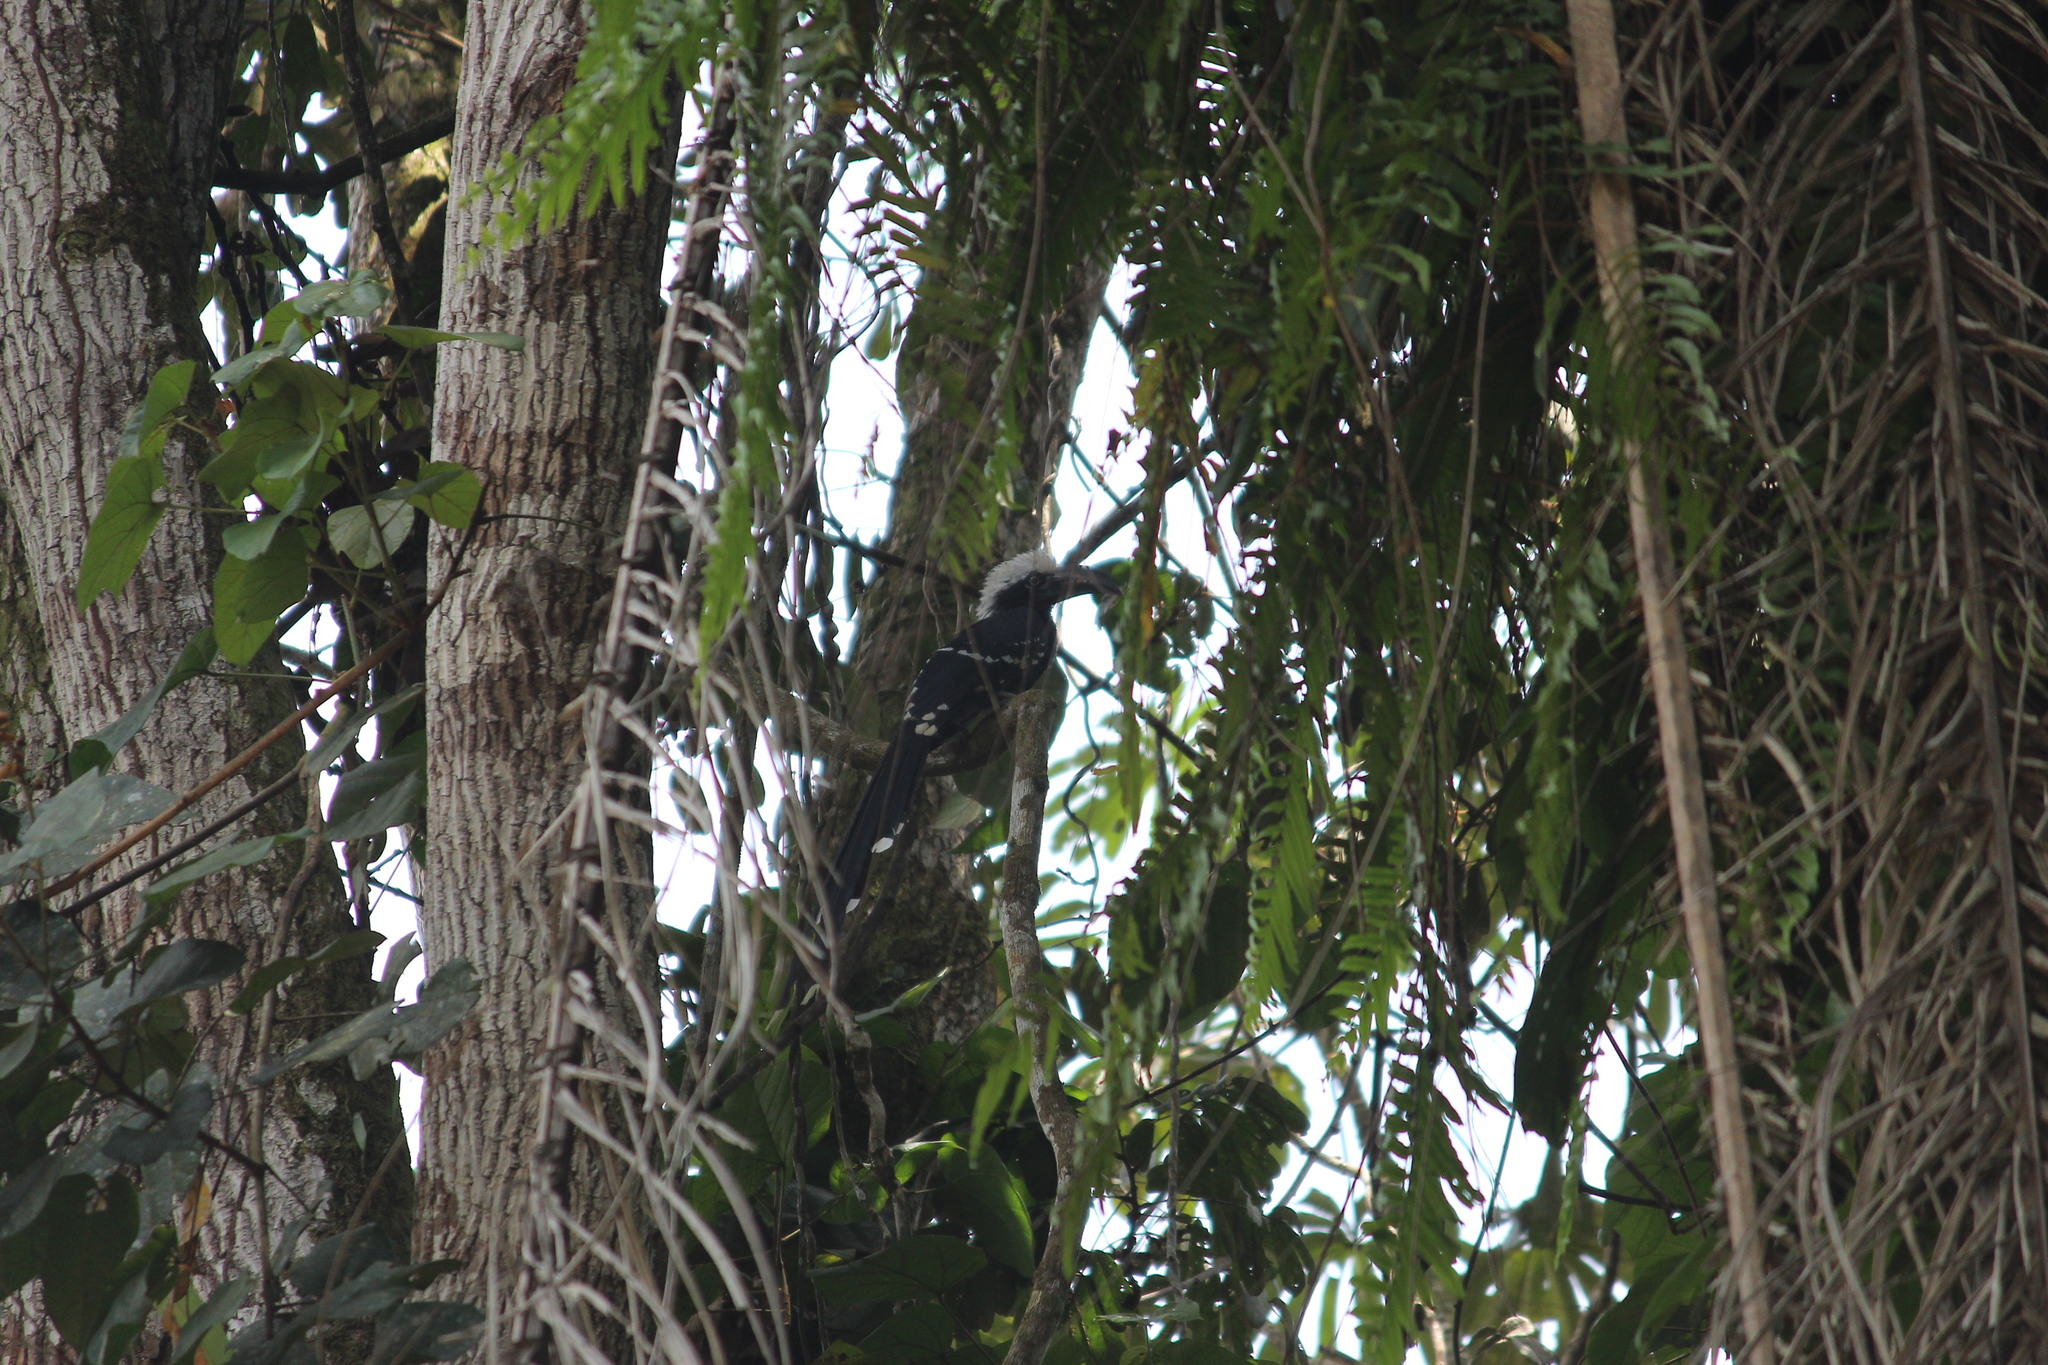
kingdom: Animalia
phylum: Chordata
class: Aves
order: Bucerotiformes
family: Bucerotidae
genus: Horizocerus
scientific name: Horizocerus albocristatus
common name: White-crested hornbill
